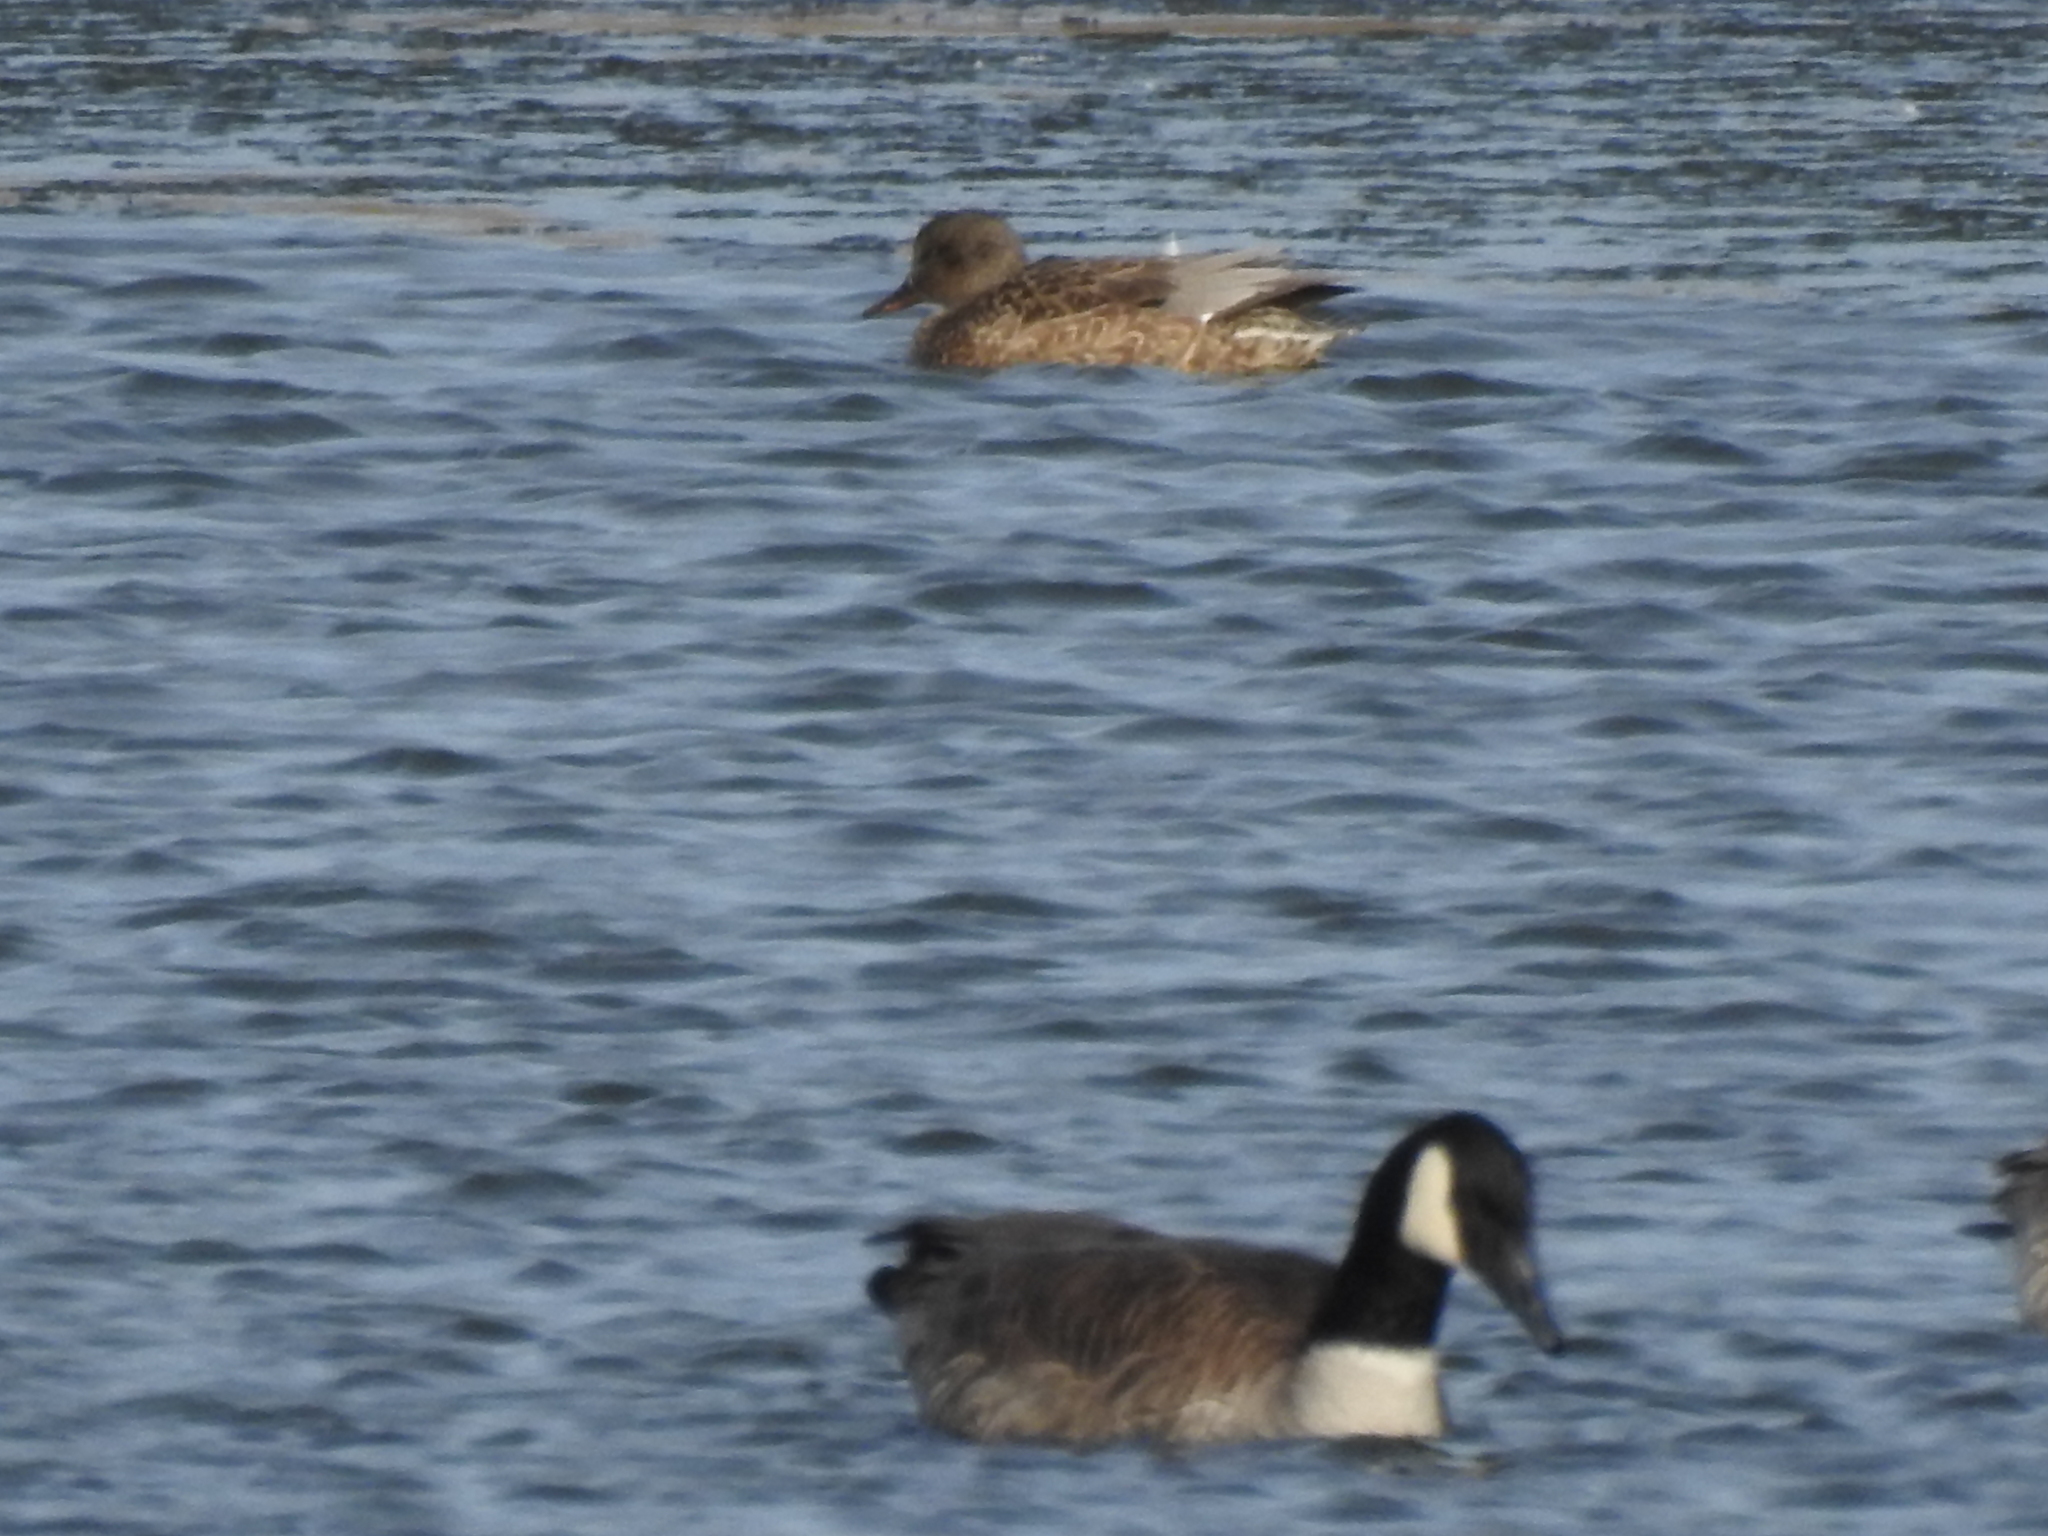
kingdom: Animalia
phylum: Chordata
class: Aves
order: Anseriformes
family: Anatidae
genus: Mareca
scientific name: Mareca strepera
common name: Gadwall
